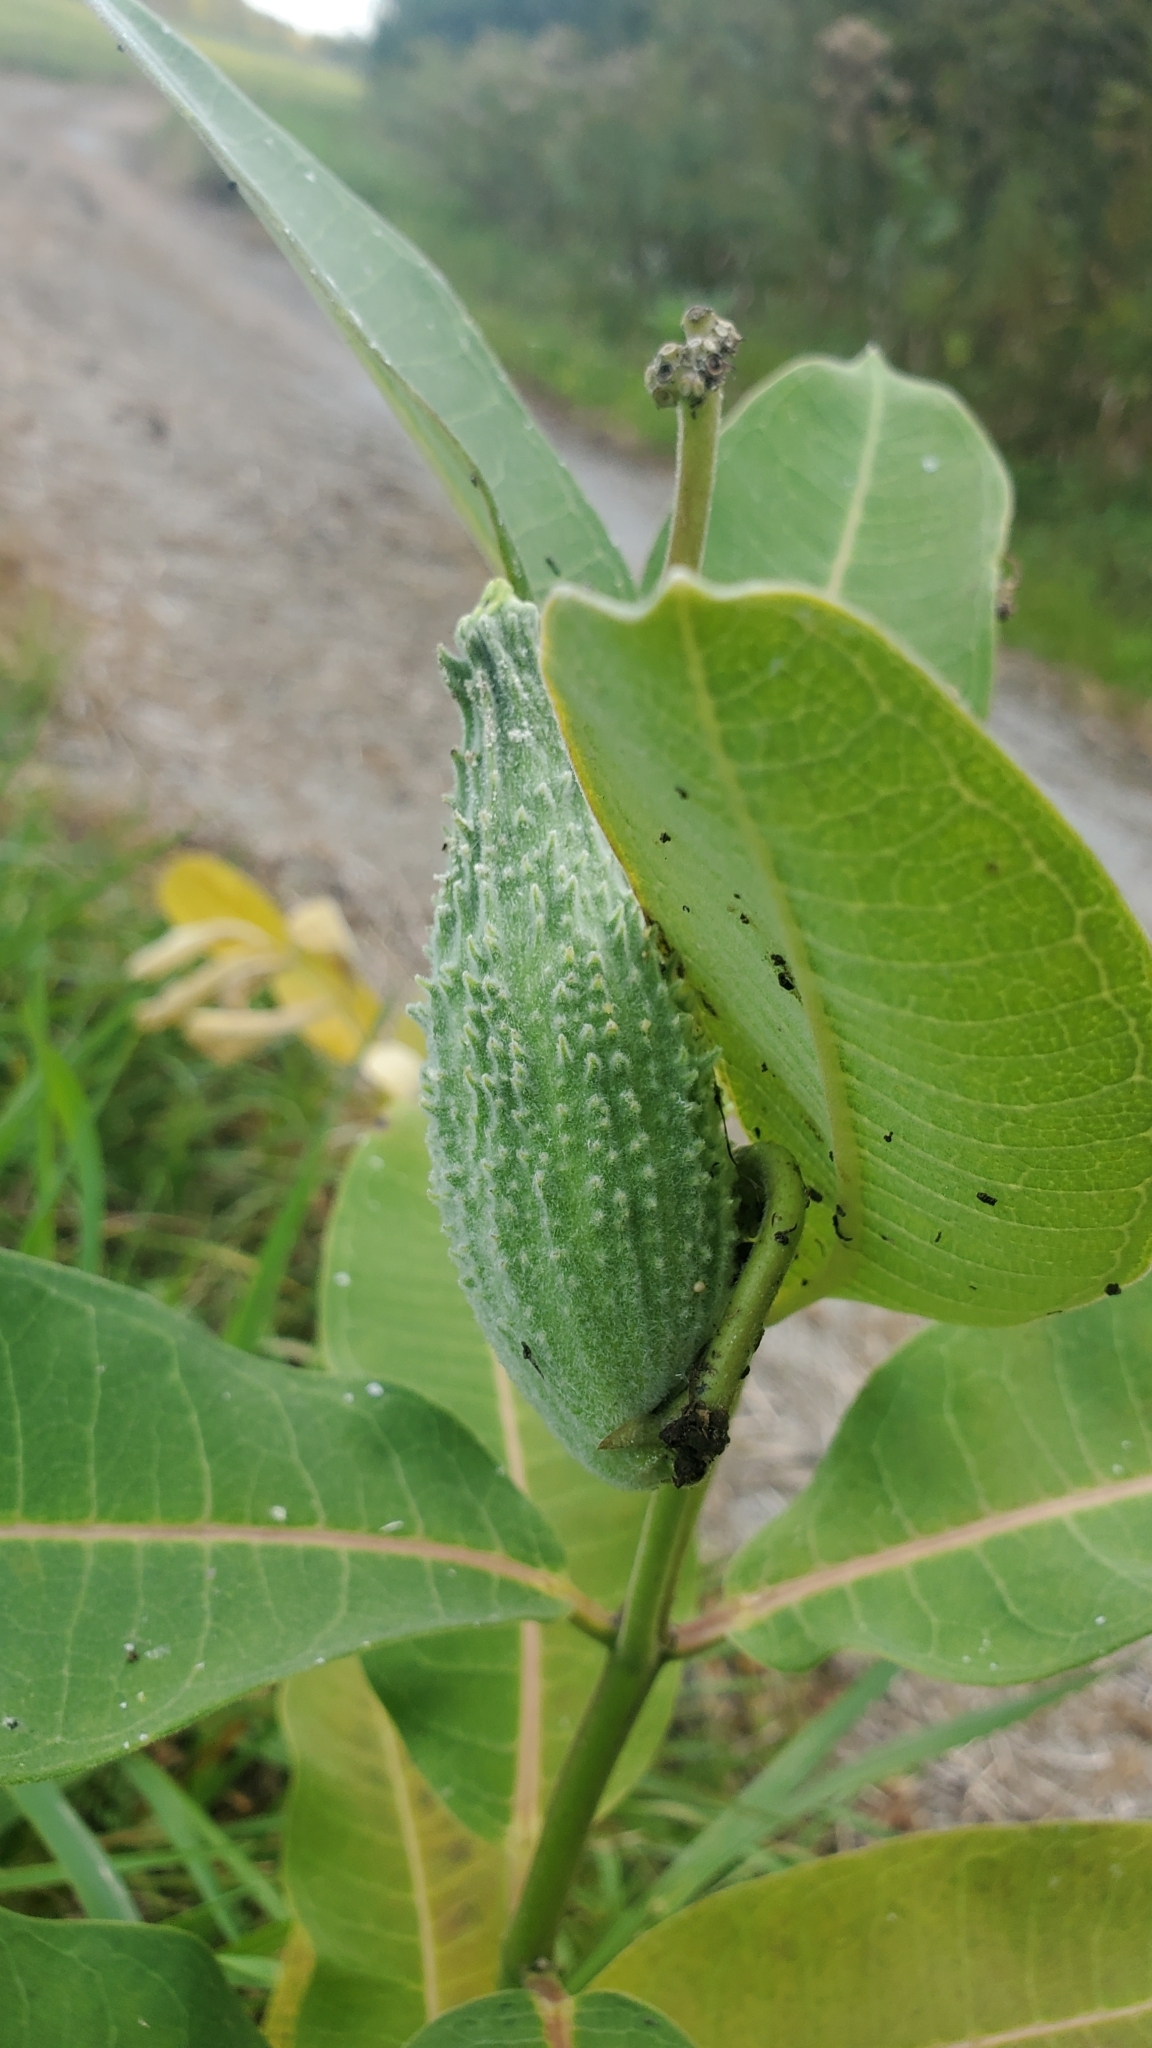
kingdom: Plantae
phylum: Tracheophyta
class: Magnoliopsida
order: Gentianales
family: Apocynaceae
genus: Asclepias
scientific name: Asclepias syriaca
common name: Common milkweed
